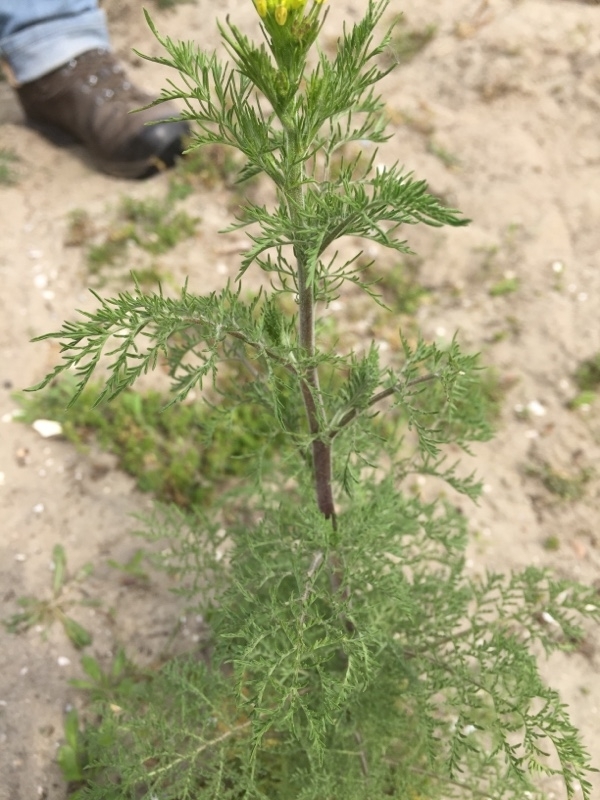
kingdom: Plantae
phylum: Tracheophyta
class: Magnoliopsida
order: Brassicales
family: Brassicaceae
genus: Descurainia
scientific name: Descurainia sophia
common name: Flixweed
